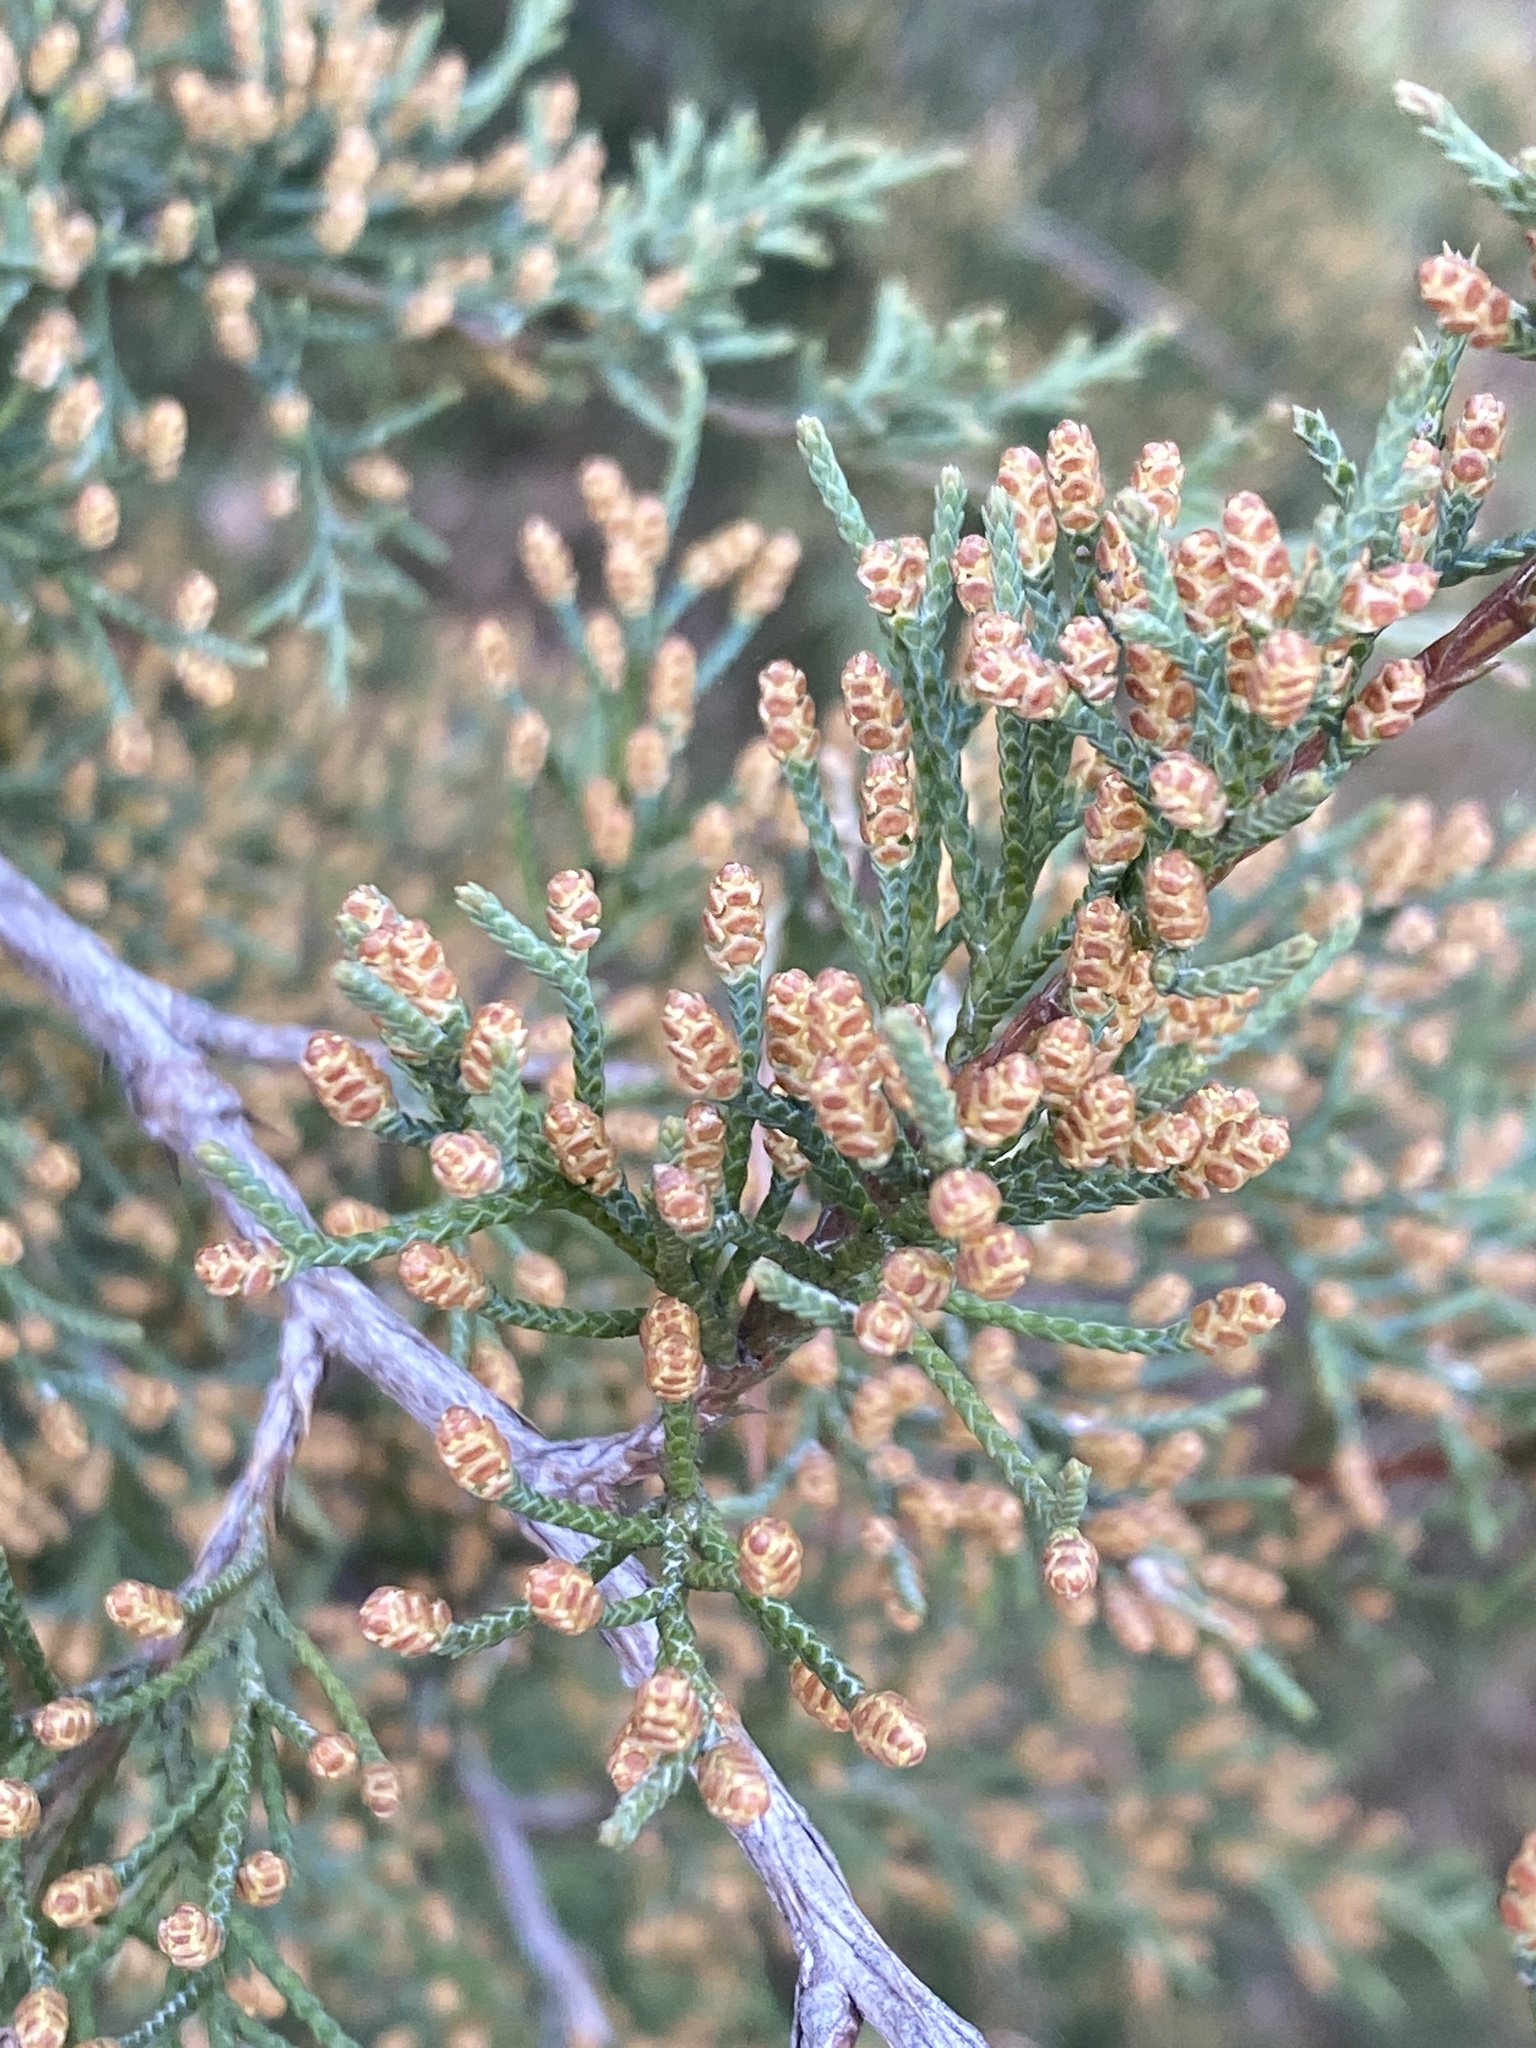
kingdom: Plantae
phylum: Tracheophyta
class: Pinopsida
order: Pinales
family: Cupressaceae
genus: Juniperus
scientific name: Juniperus virginiana
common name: Red juniper
